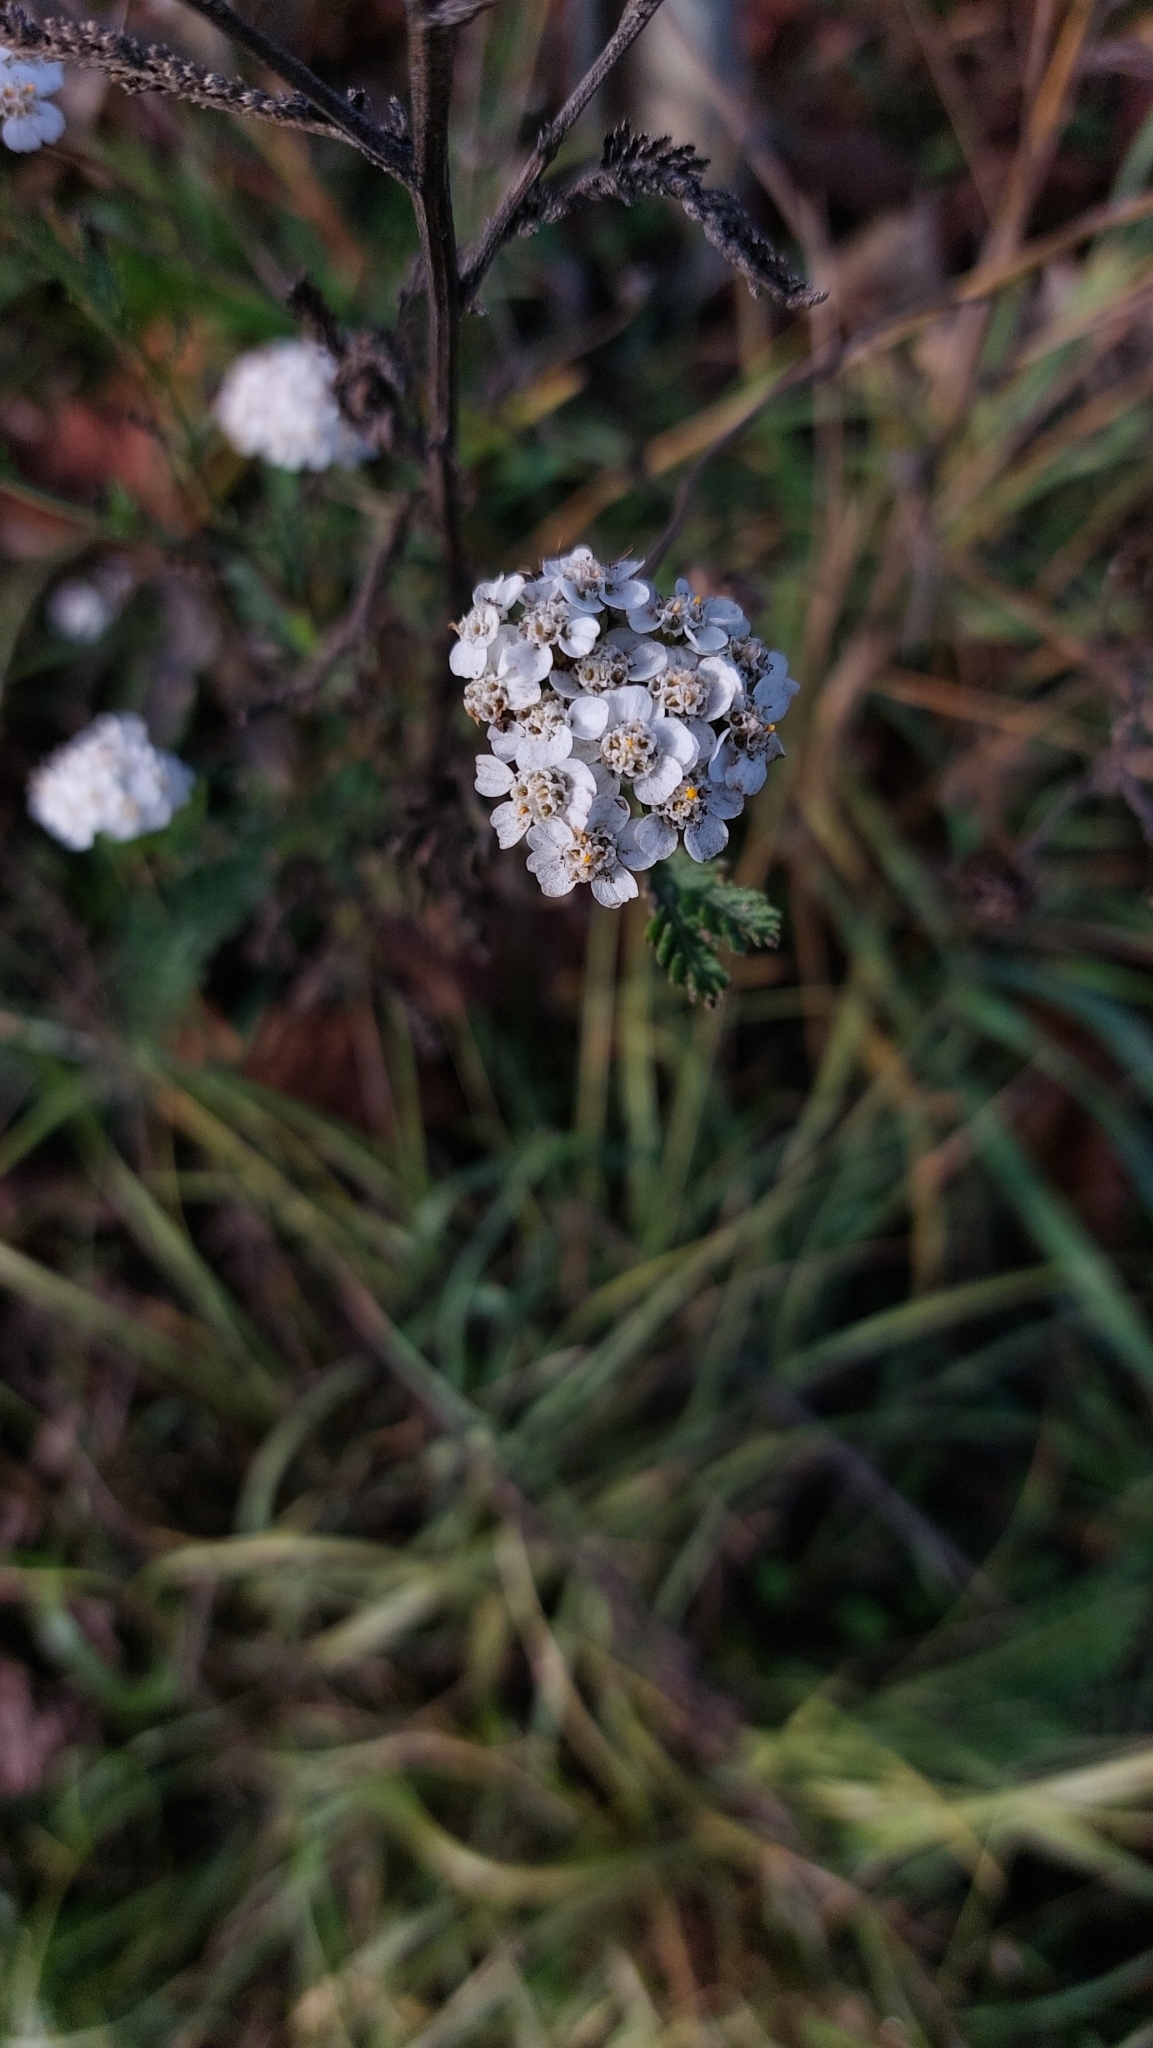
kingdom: Plantae
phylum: Tracheophyta
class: Magnoliopsida
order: Asterales
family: Asteraceae
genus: Achillea
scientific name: Achillea millefolium
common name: Yarrow
